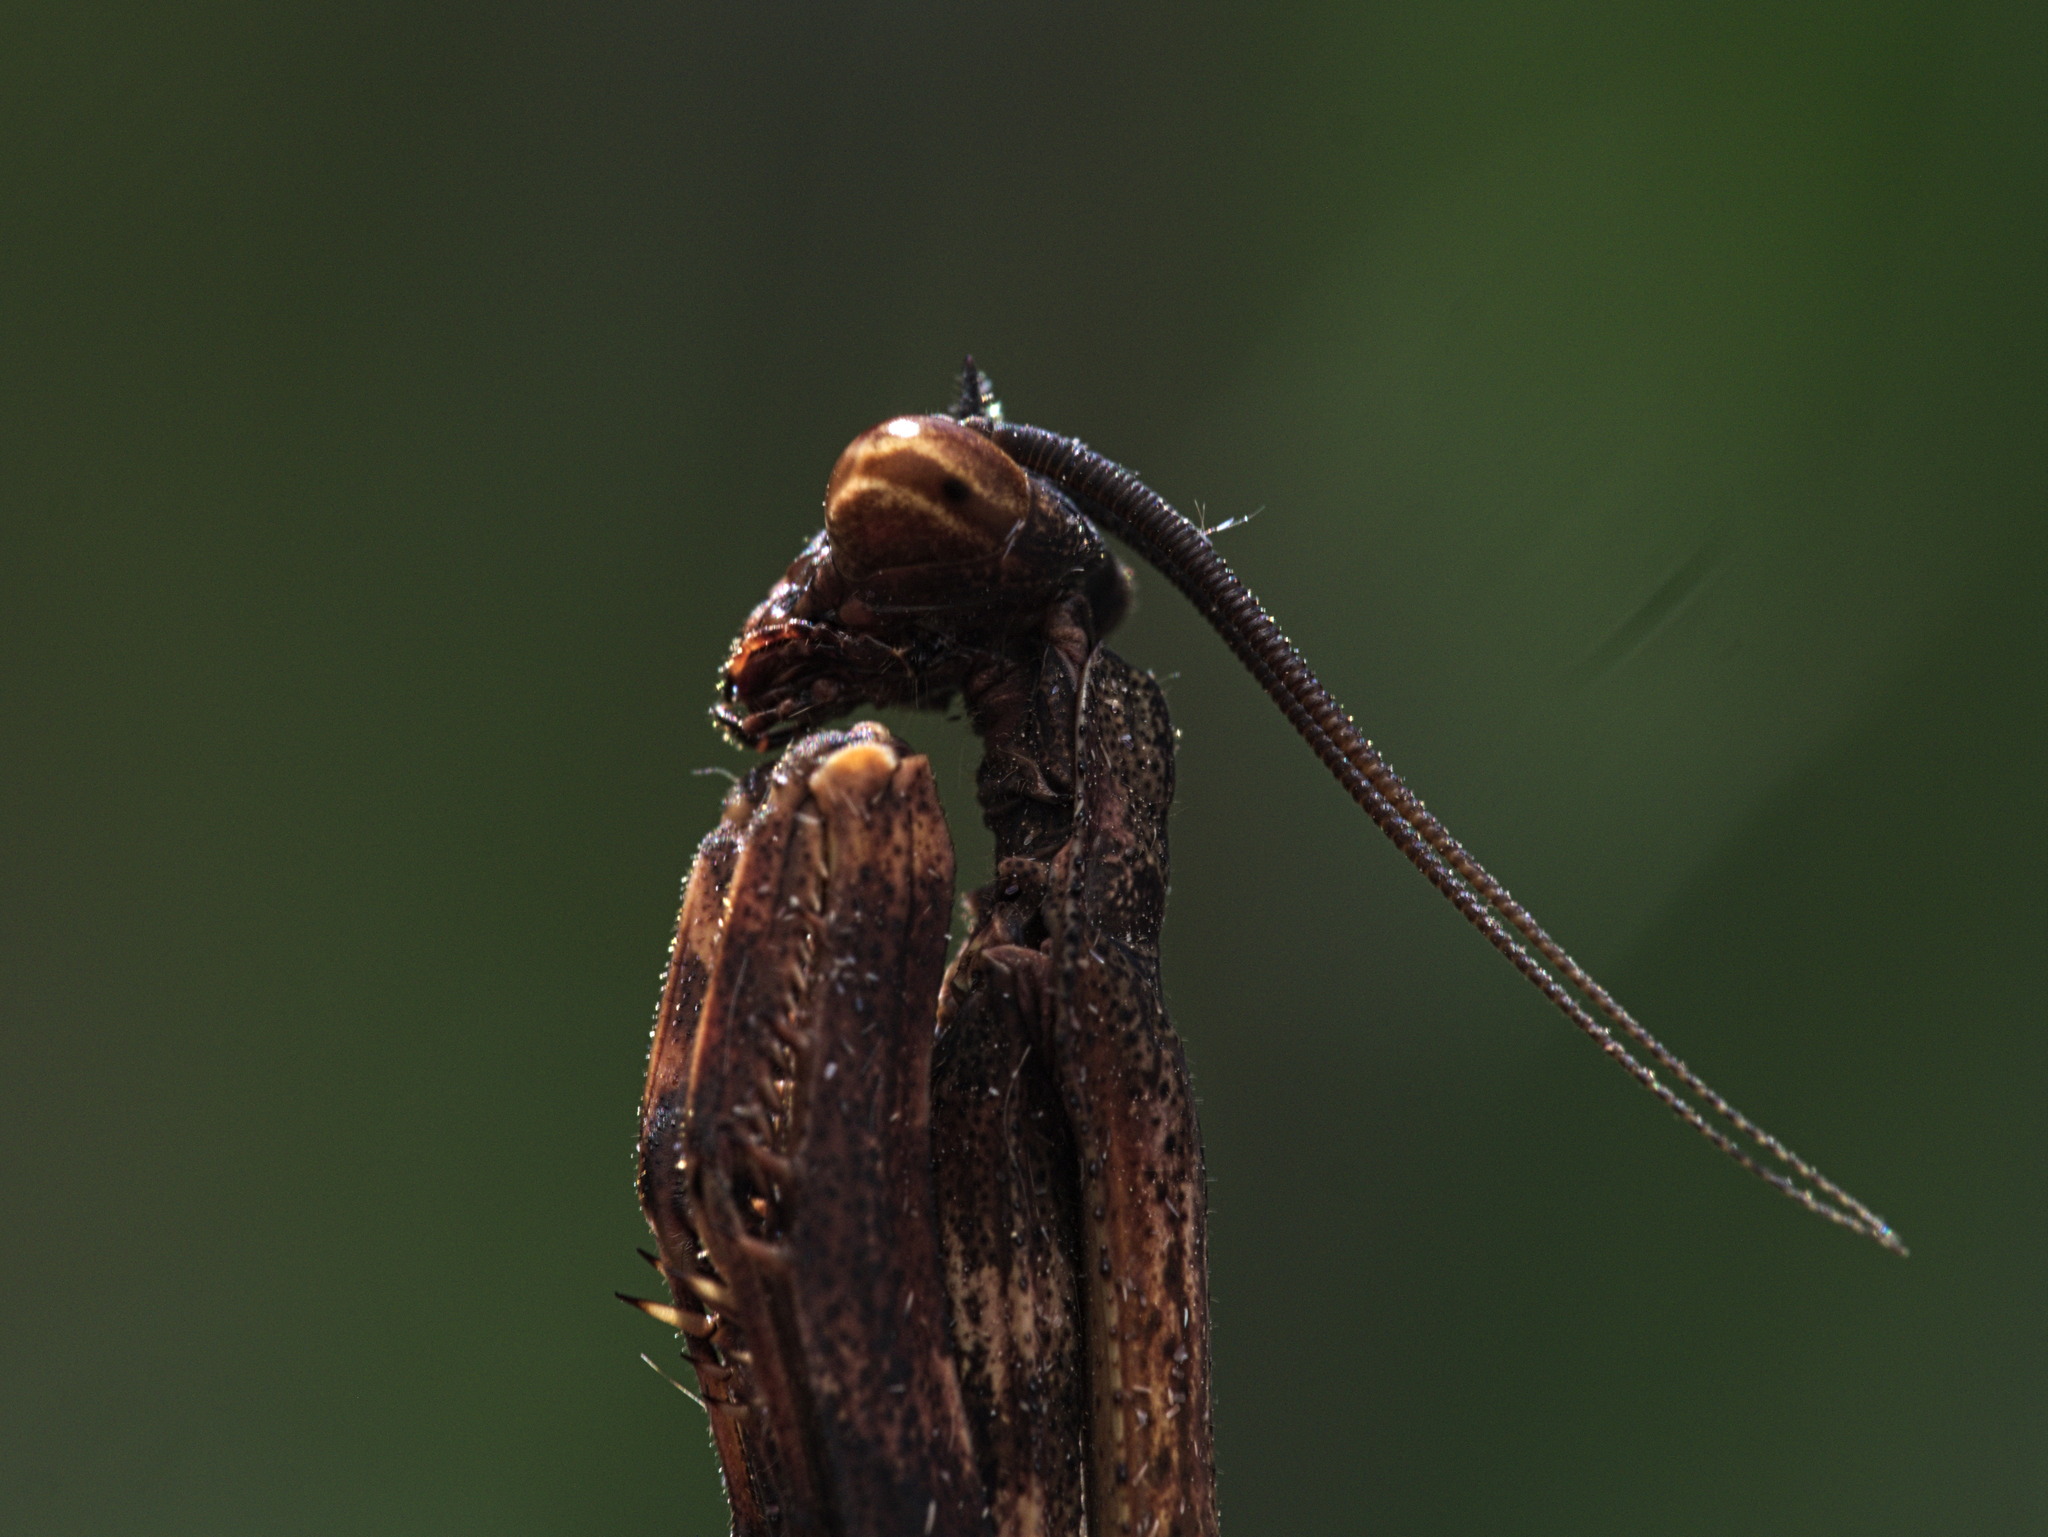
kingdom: Animalia
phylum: Arthropoda
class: Insecta
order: Mantodea
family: Mantidae
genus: Pseudovates
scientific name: Pseudovates tolteca
